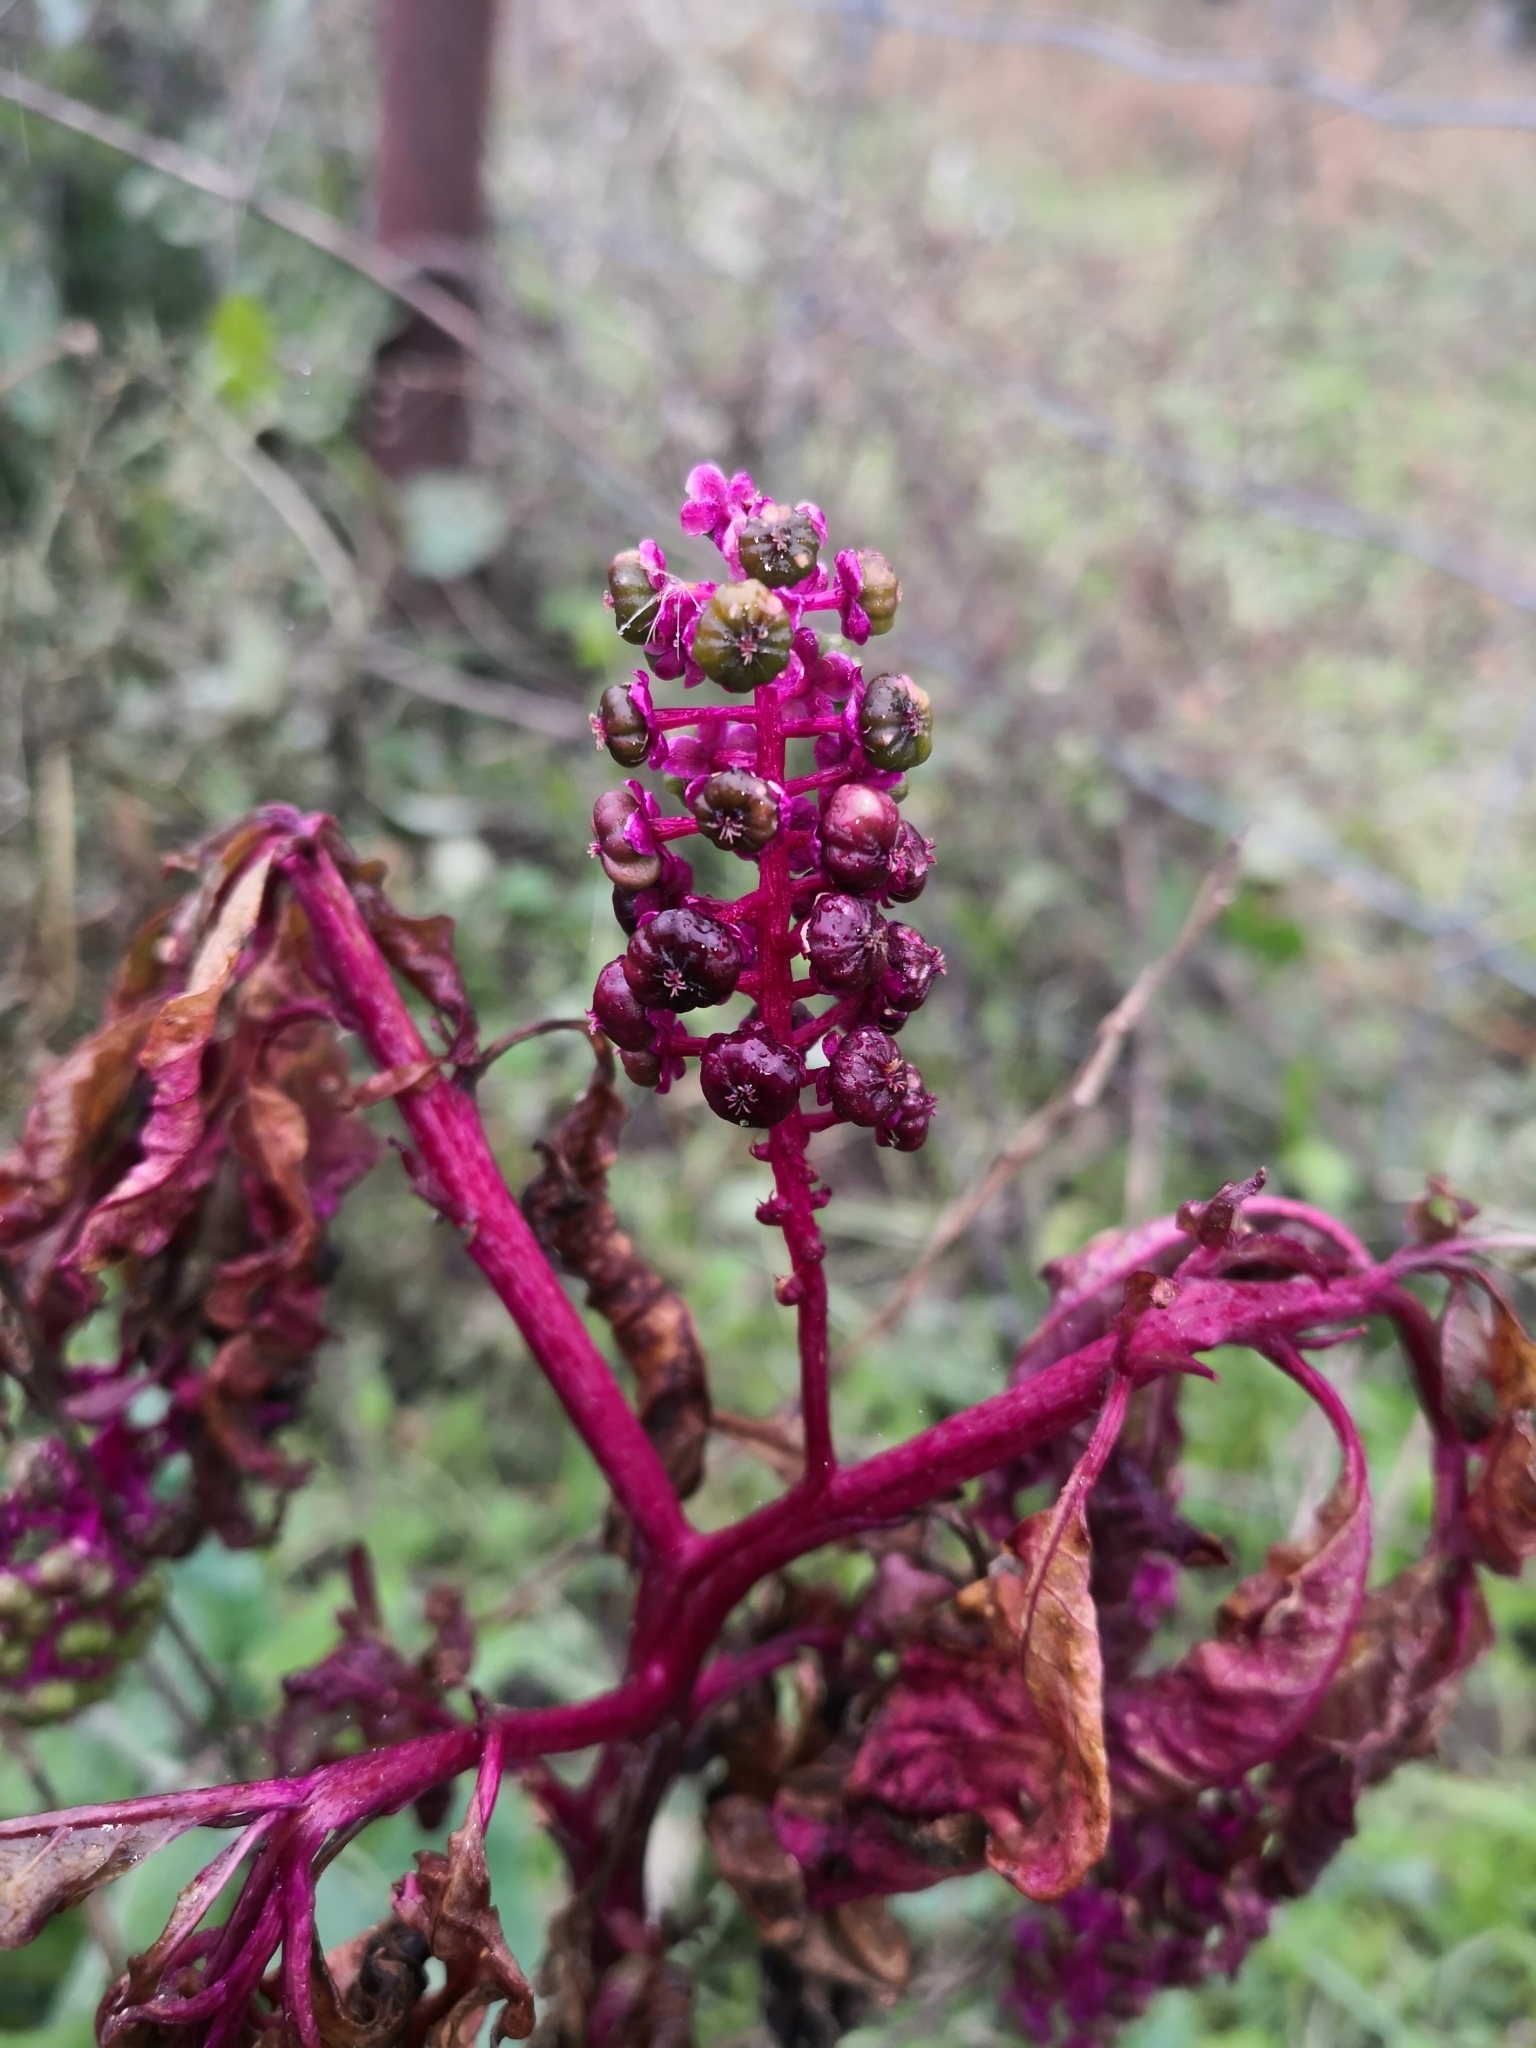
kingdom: Plantae
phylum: Tracheophyta
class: Magnoliopsida
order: Caryophyllales
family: Phytolaccaceae
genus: Phytolacca
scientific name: Phytolacca americana
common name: American pokeweed
